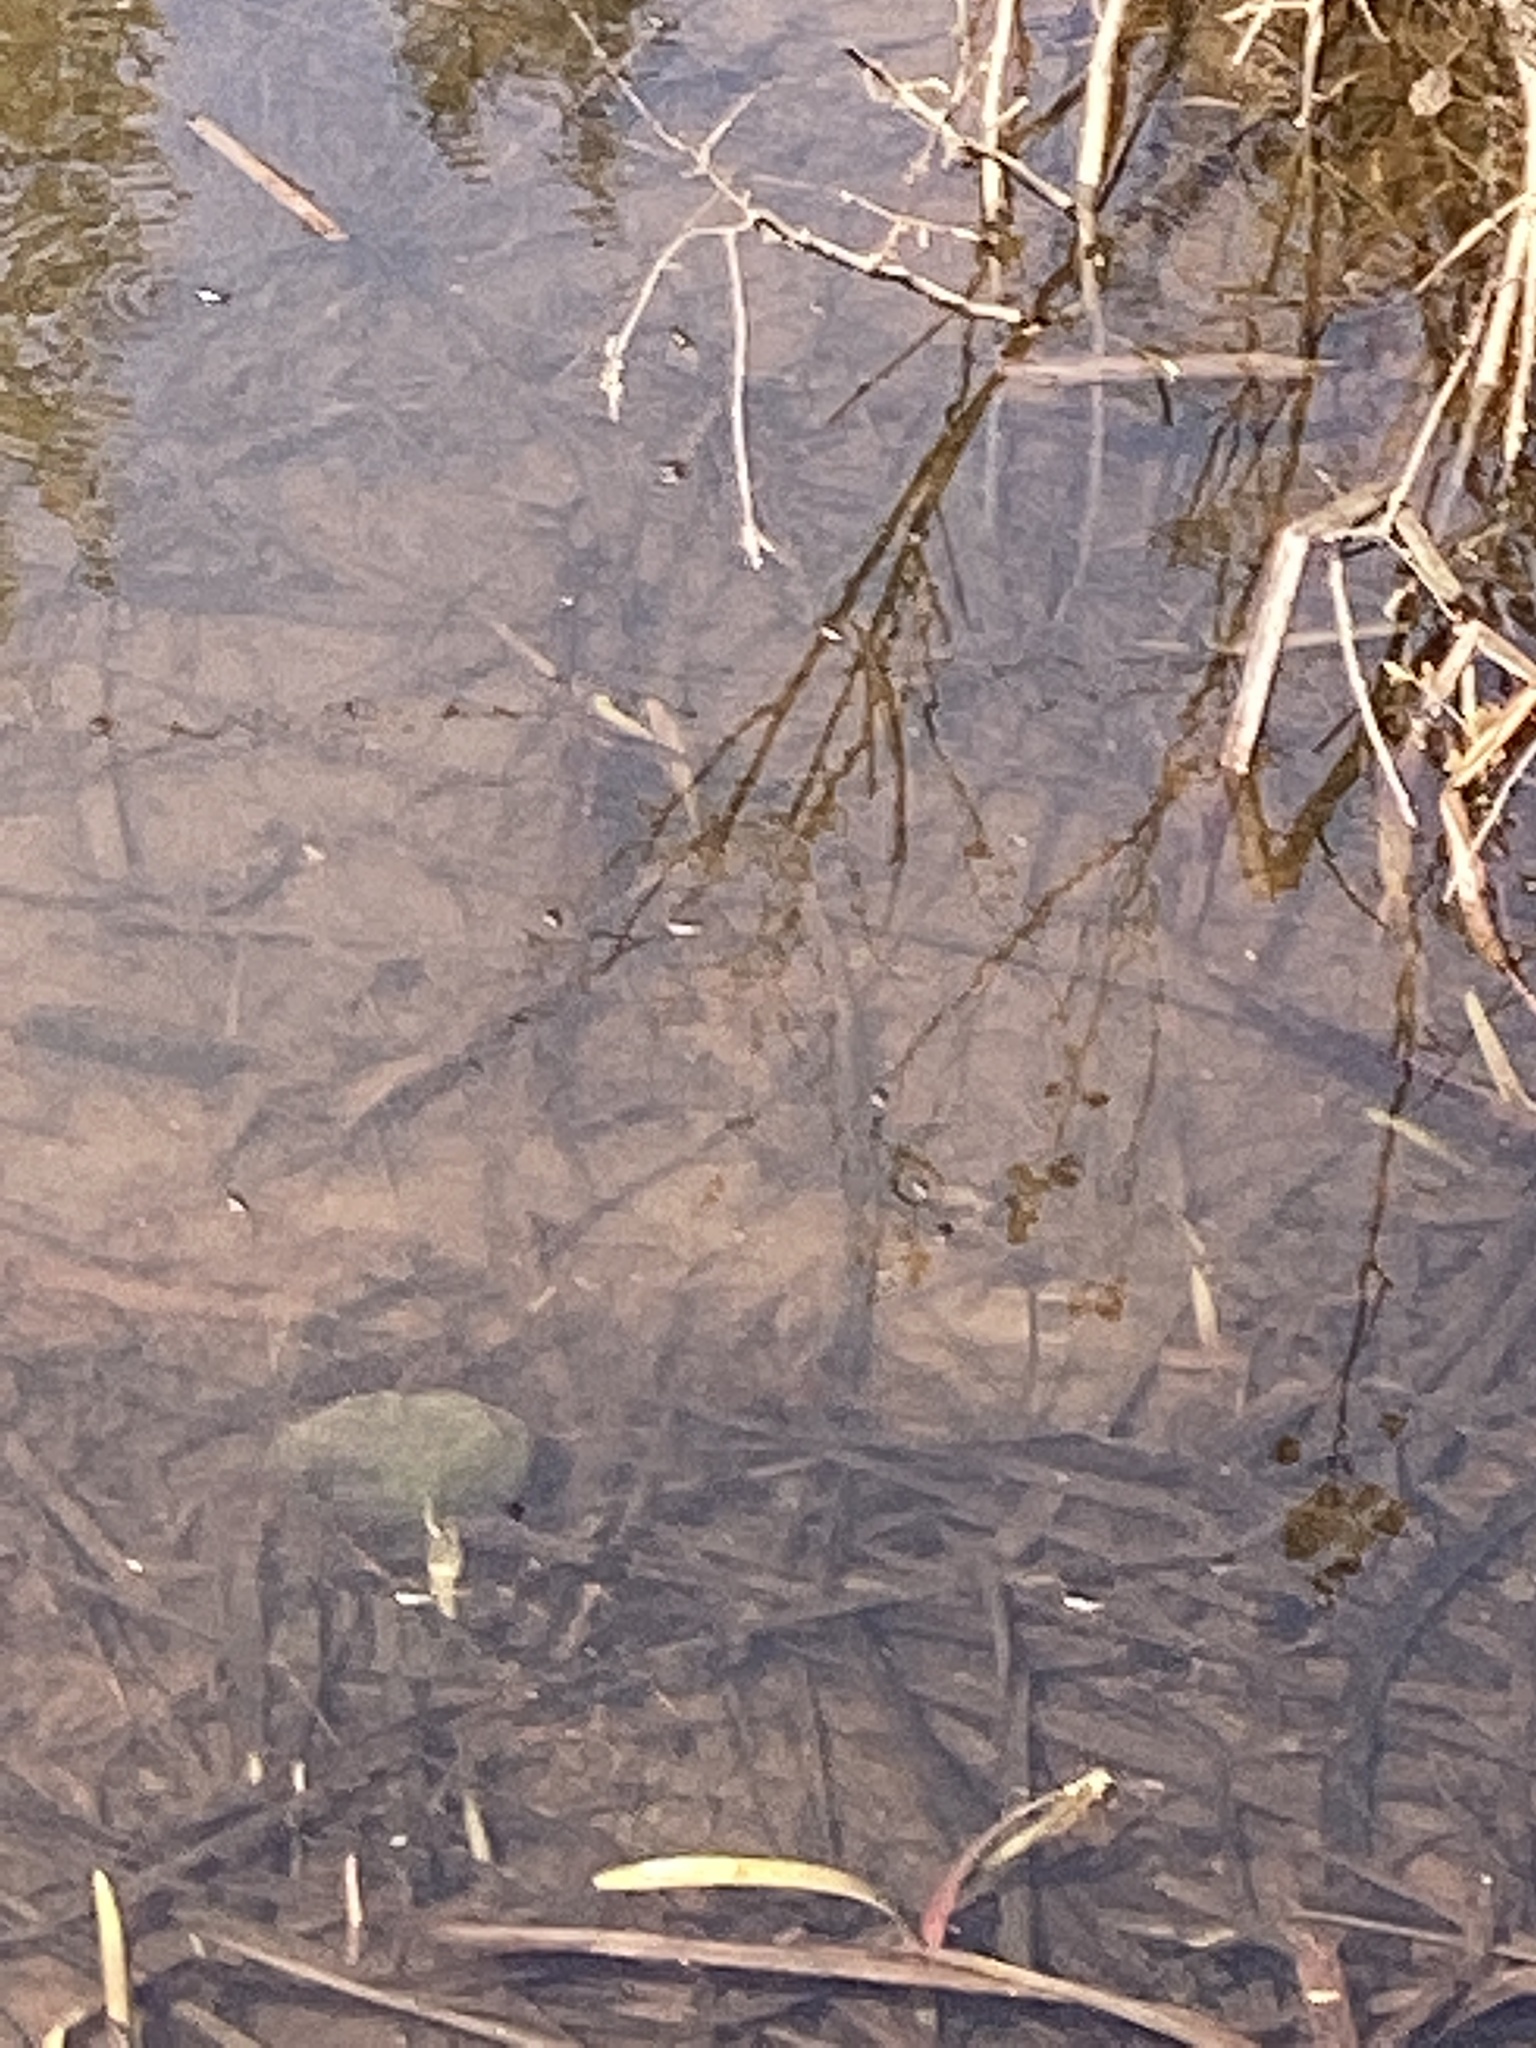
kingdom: Animalia
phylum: Arthropoda
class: Insecta
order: Coleoptera
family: Gyrinidae
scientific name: Gyrinidae
